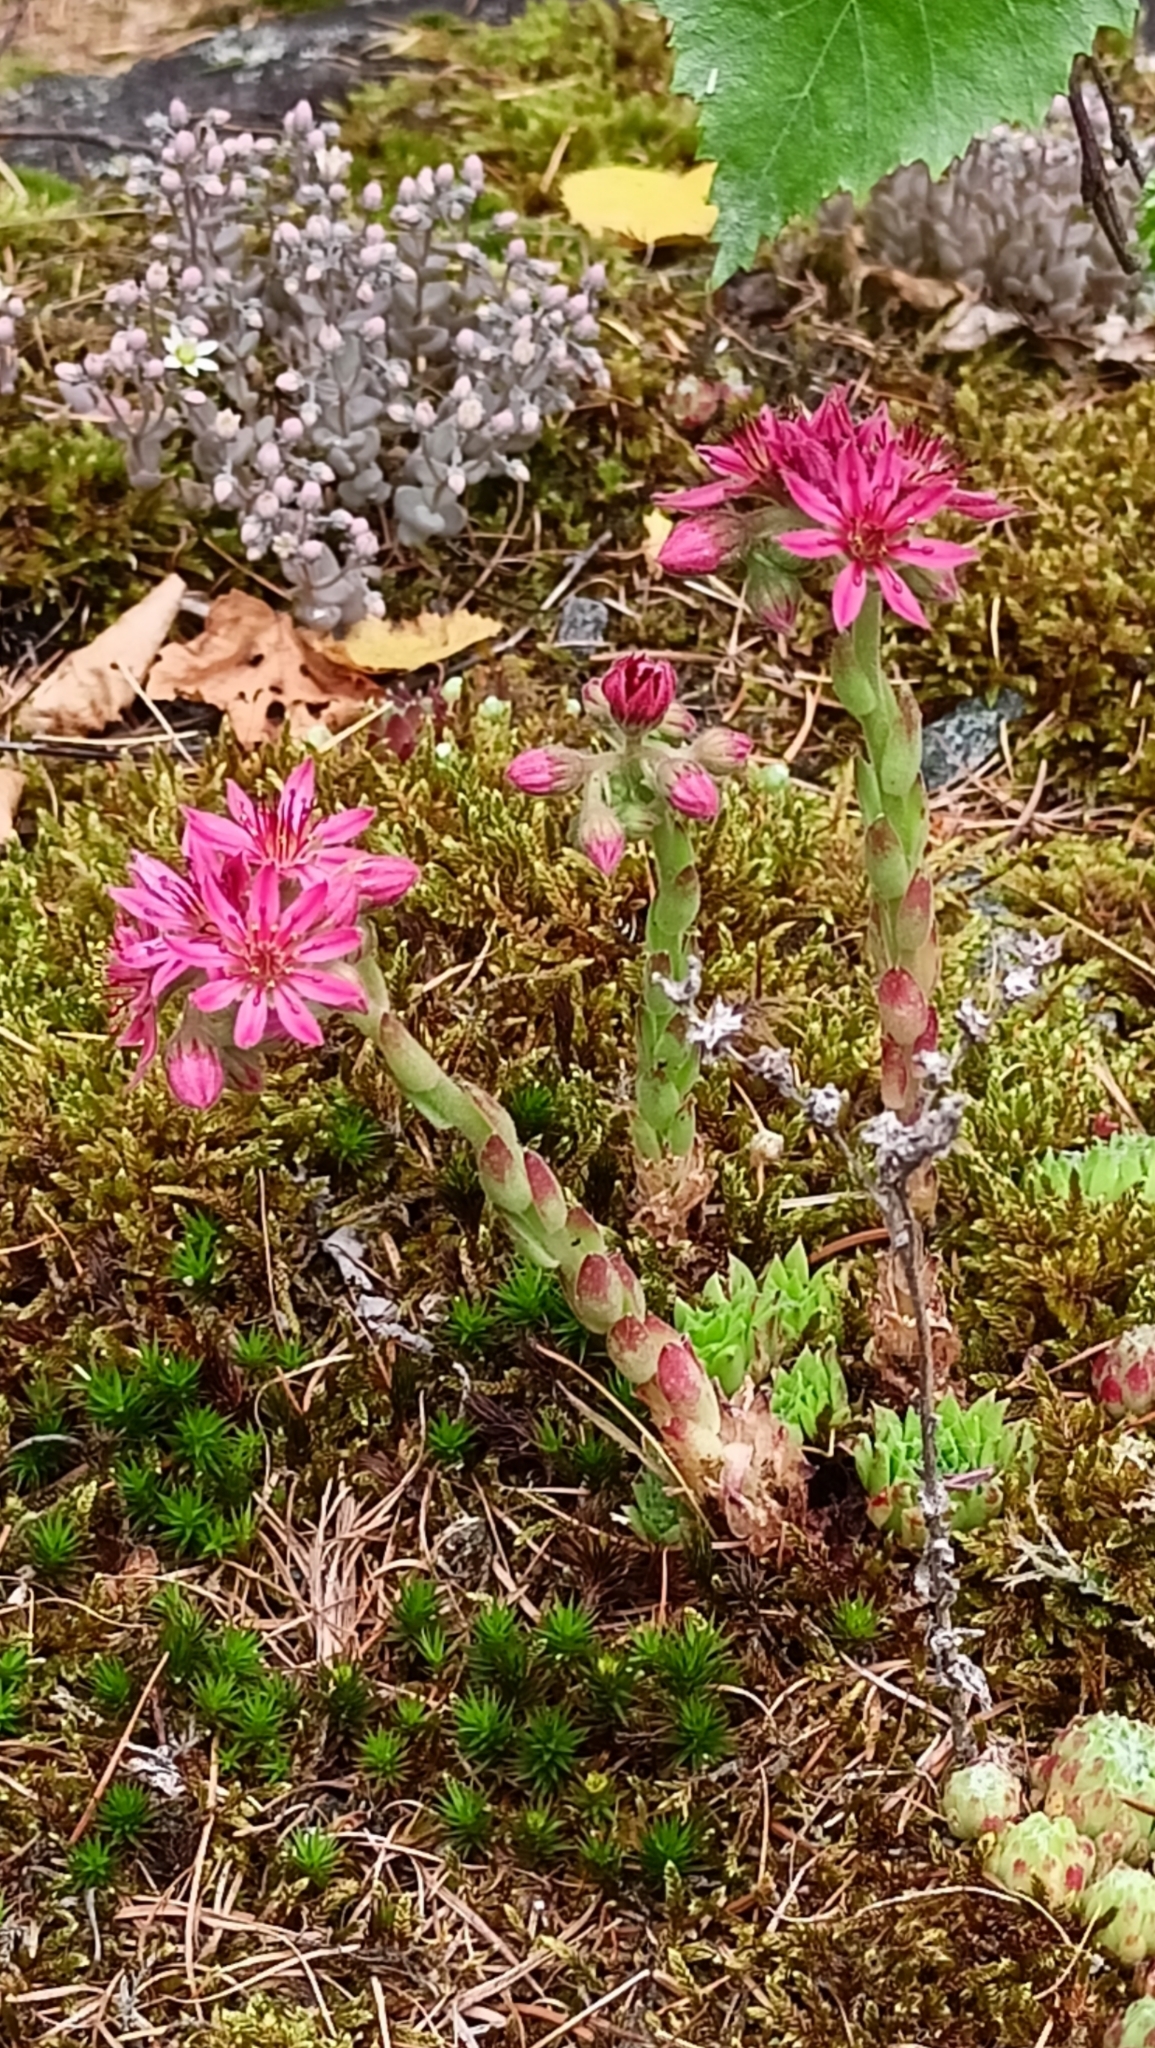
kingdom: Plantae
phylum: Tracheophyta
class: Magnoliopsida
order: Saxifragales
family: Crassulaceae
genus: Sempervivum
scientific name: Sempervivum arachnoideum
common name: Cobweb house-leek
